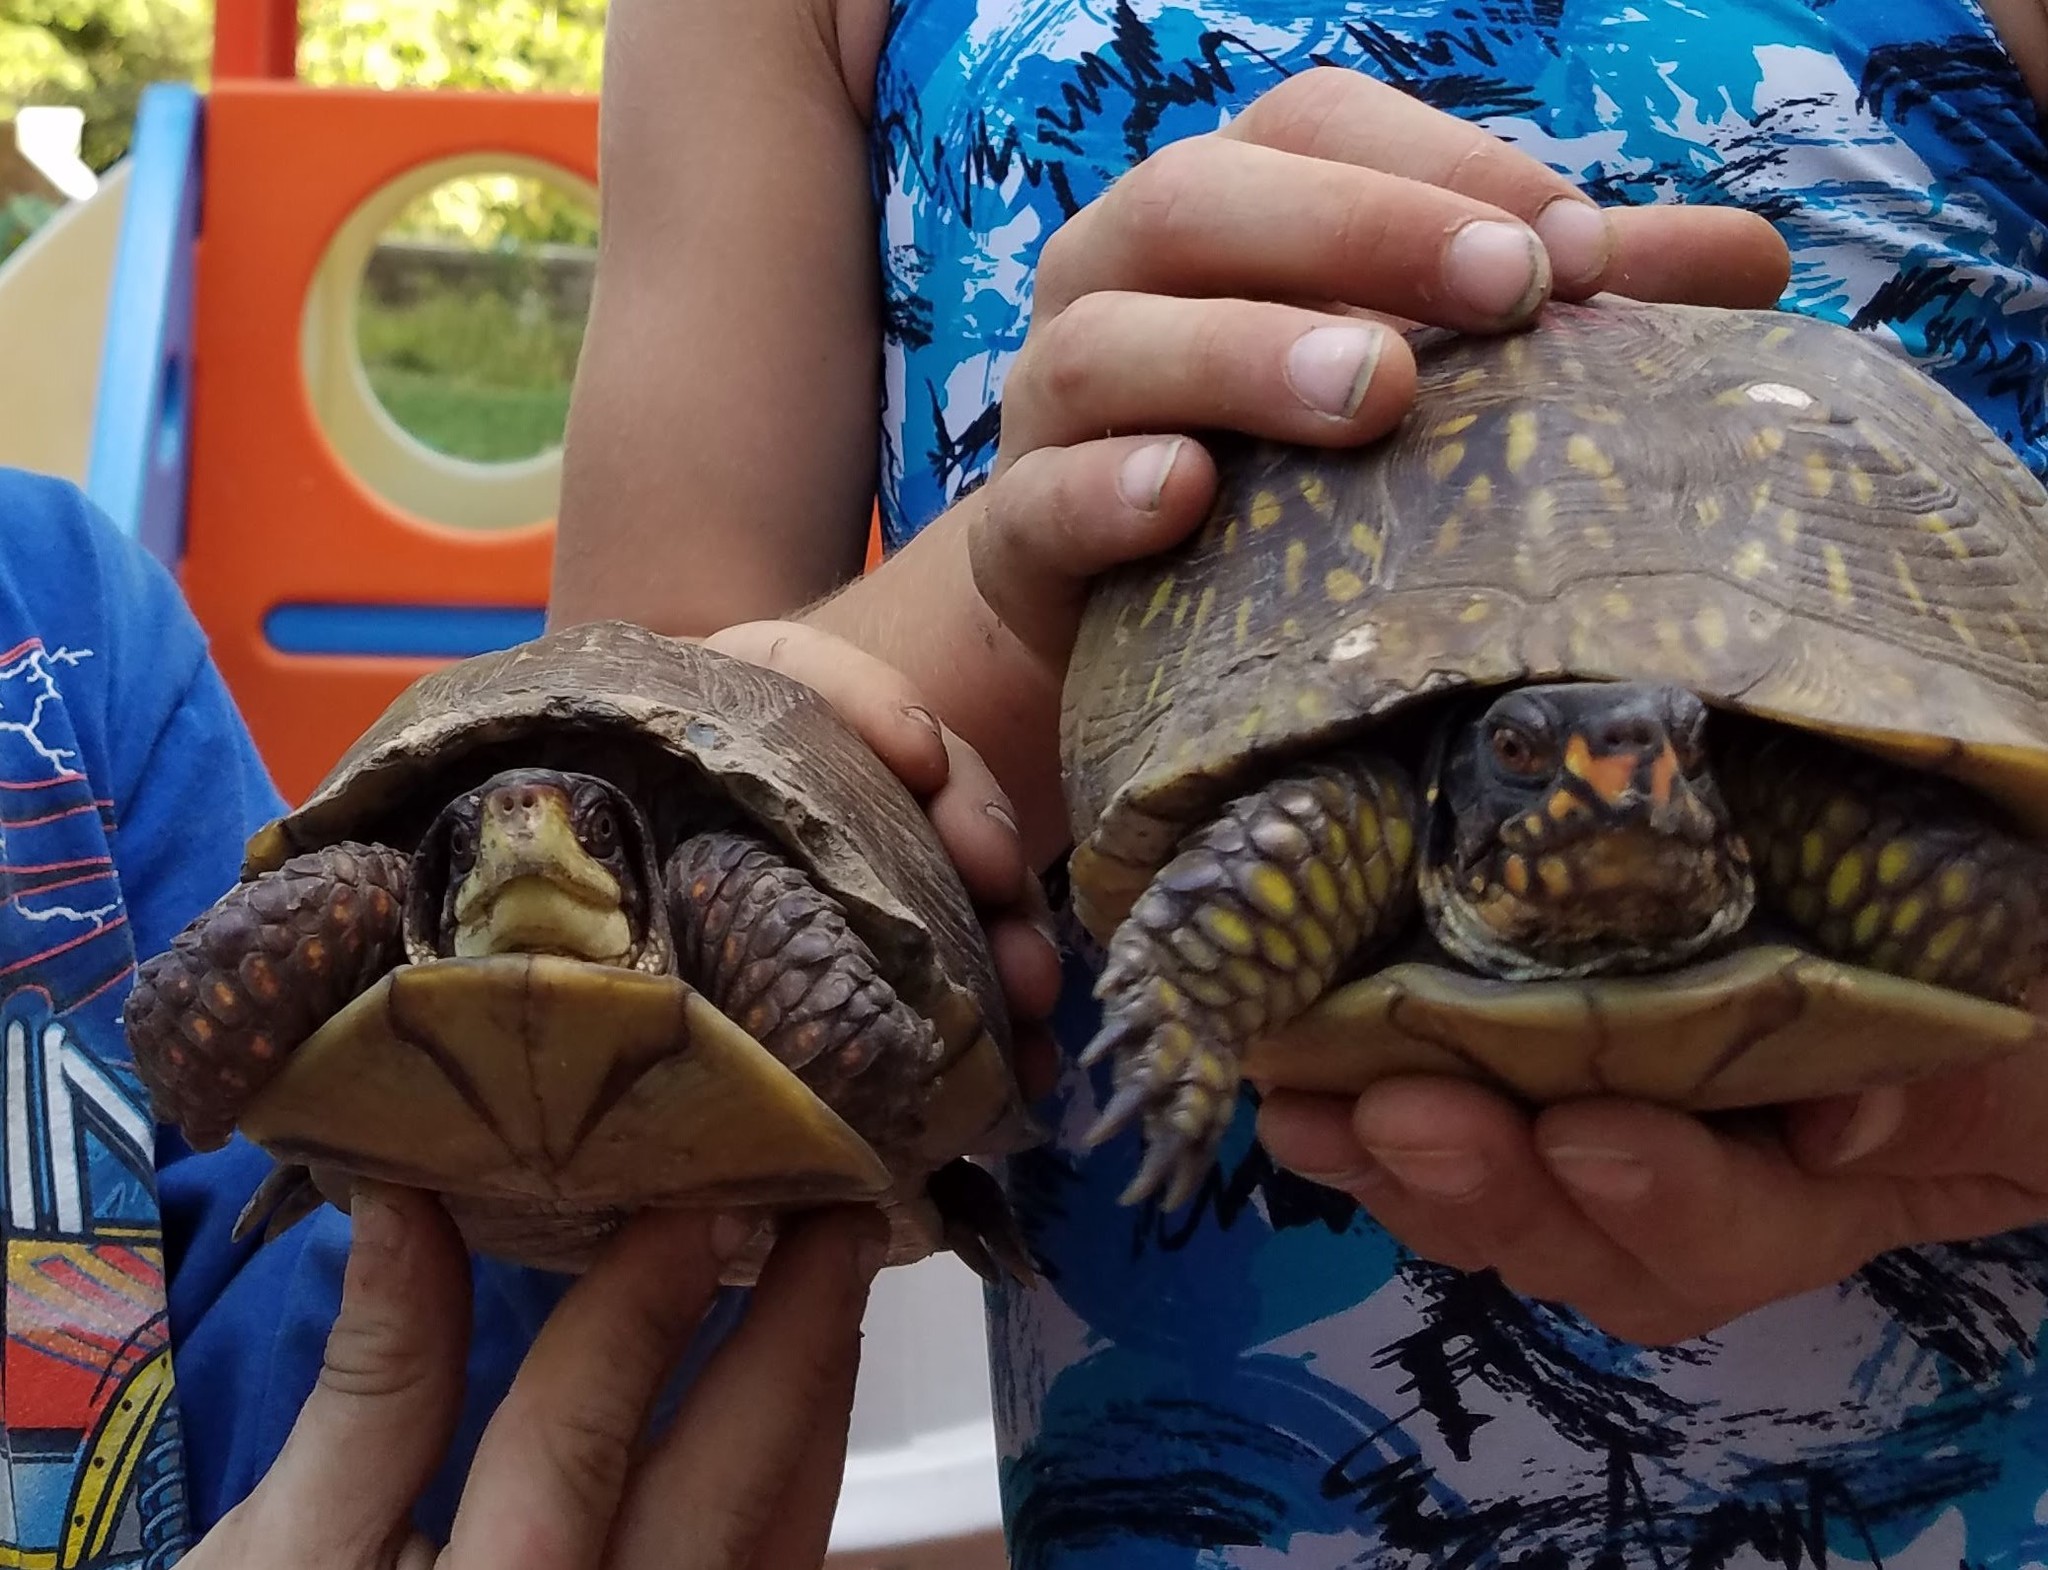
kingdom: Animalia
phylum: Chordata
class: Testudines
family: Emydidae
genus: Terrapene
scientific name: Terrapene carolina
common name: Common box turtle
